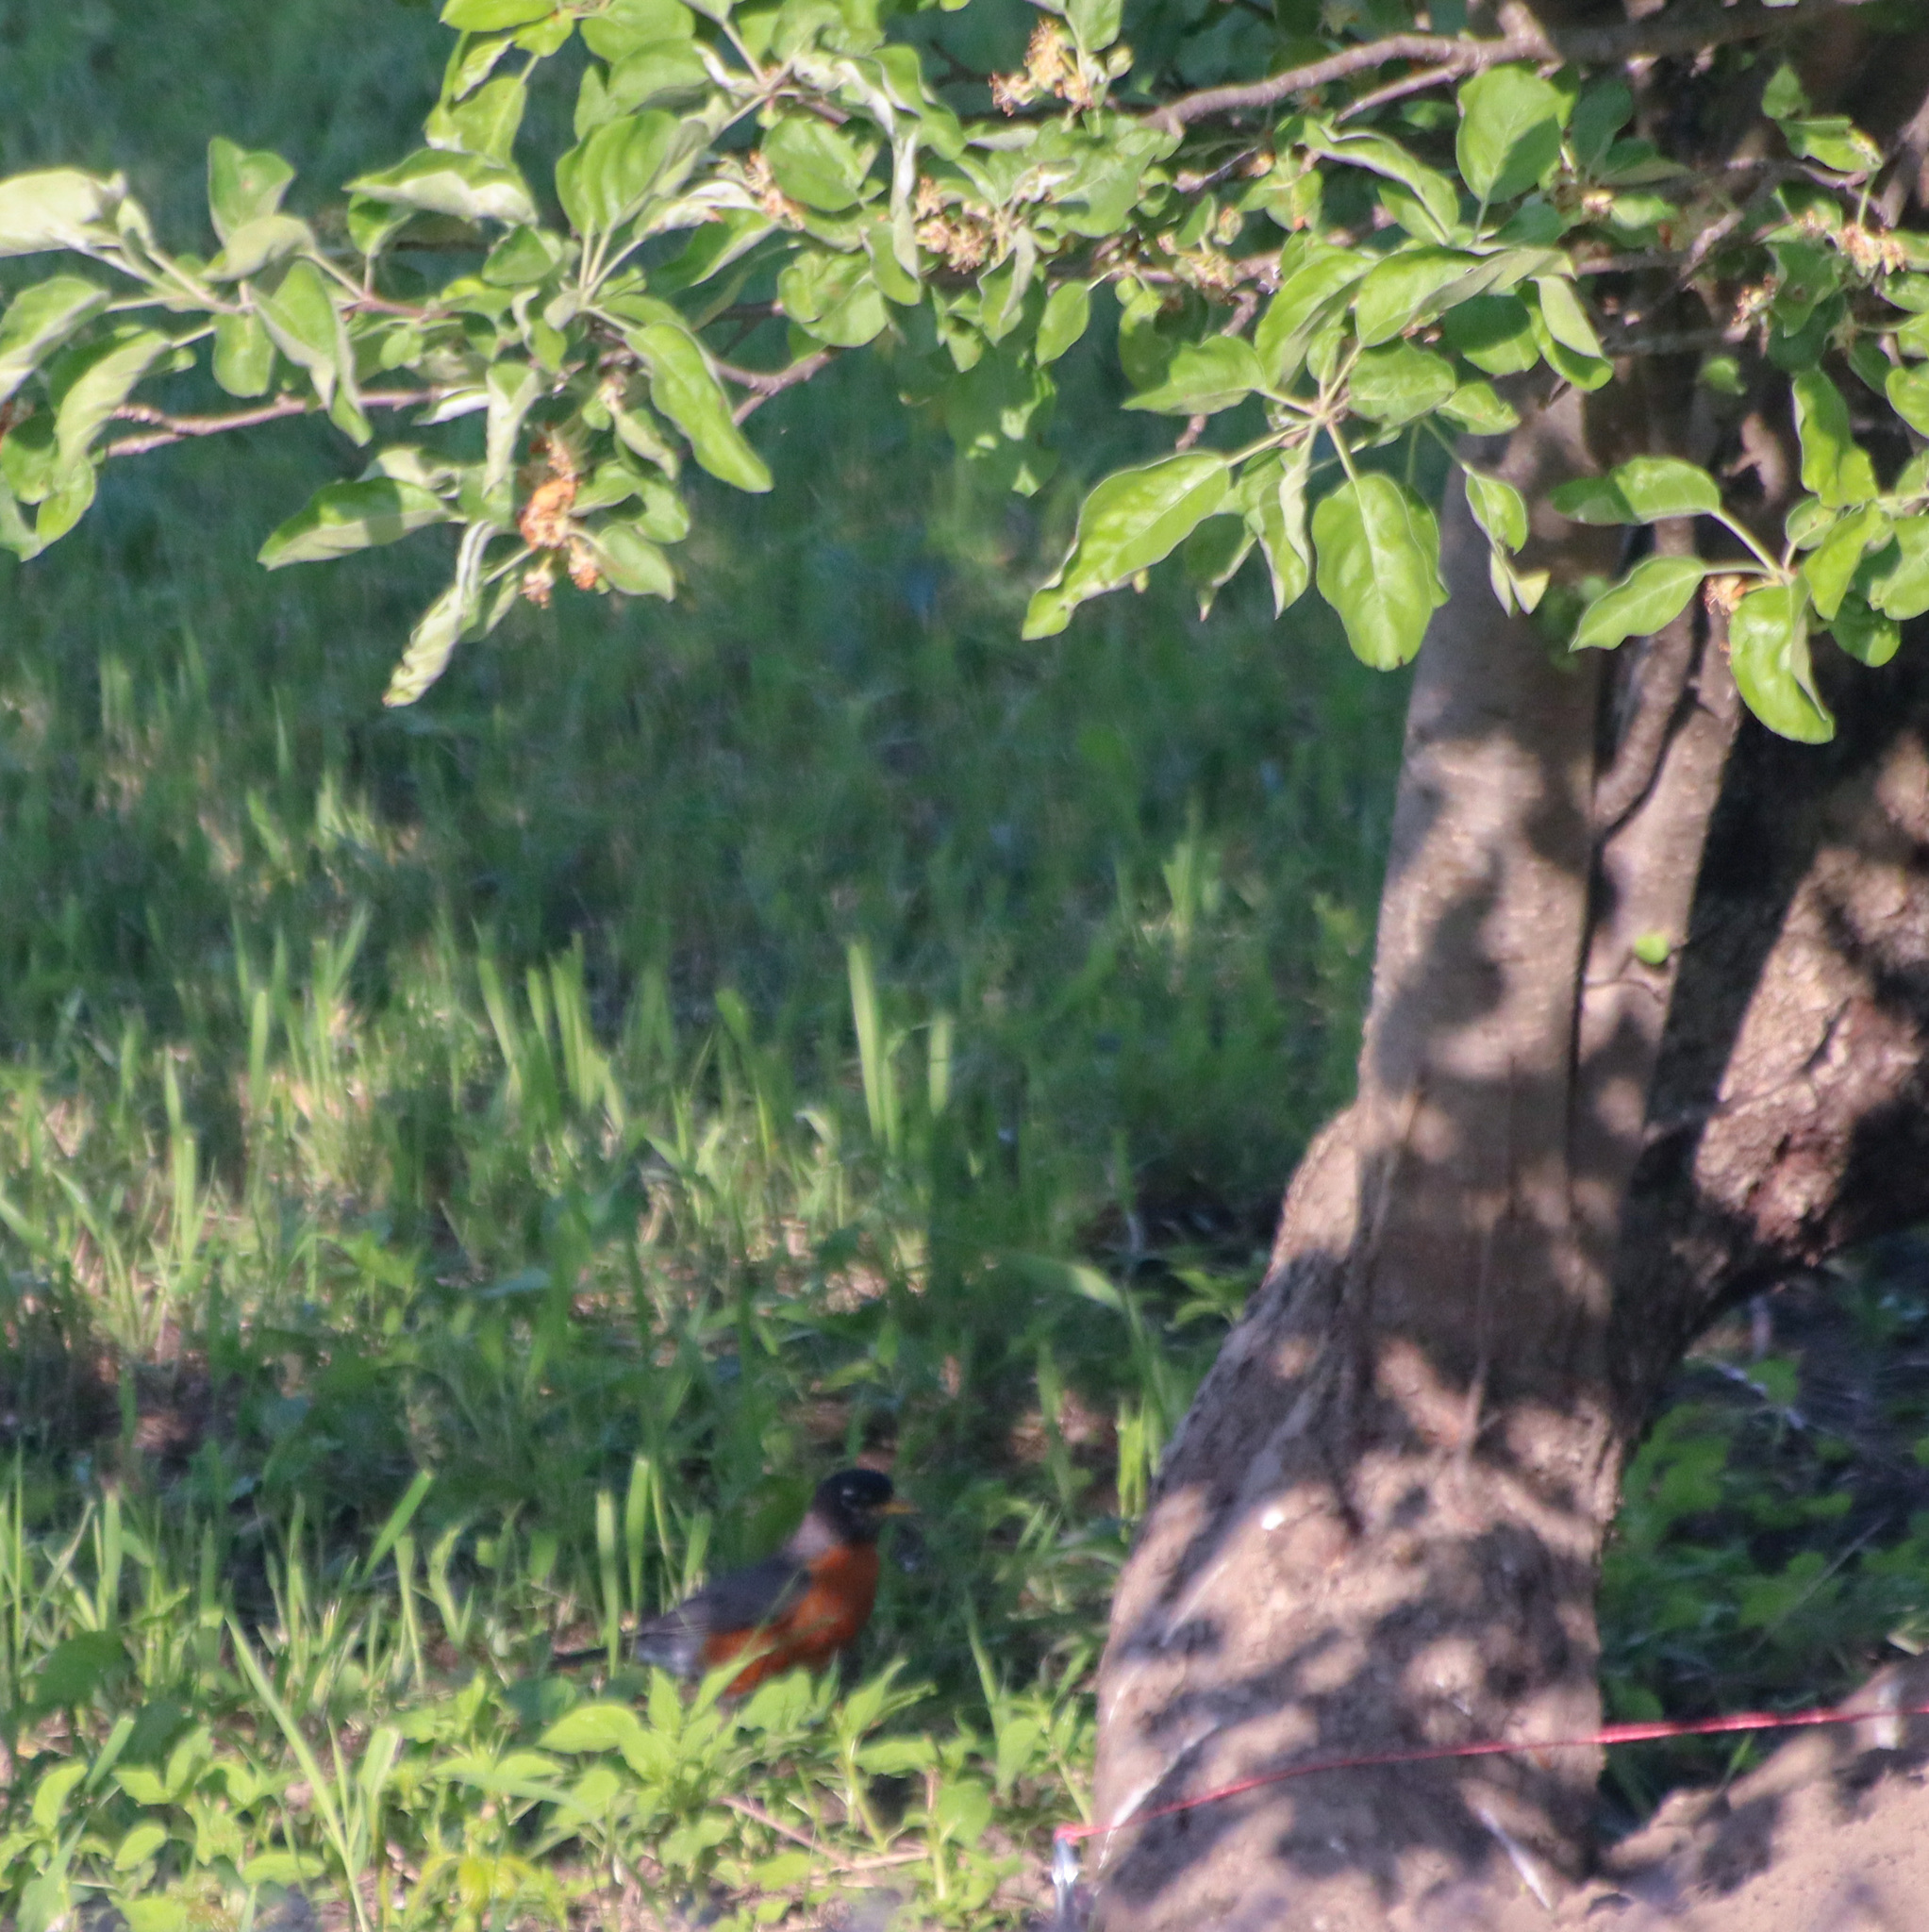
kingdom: Animalia
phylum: Chordata
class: Aves
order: Passeriformes
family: Turdidae
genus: Turdus
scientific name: Turdus migratorius
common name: American robin
